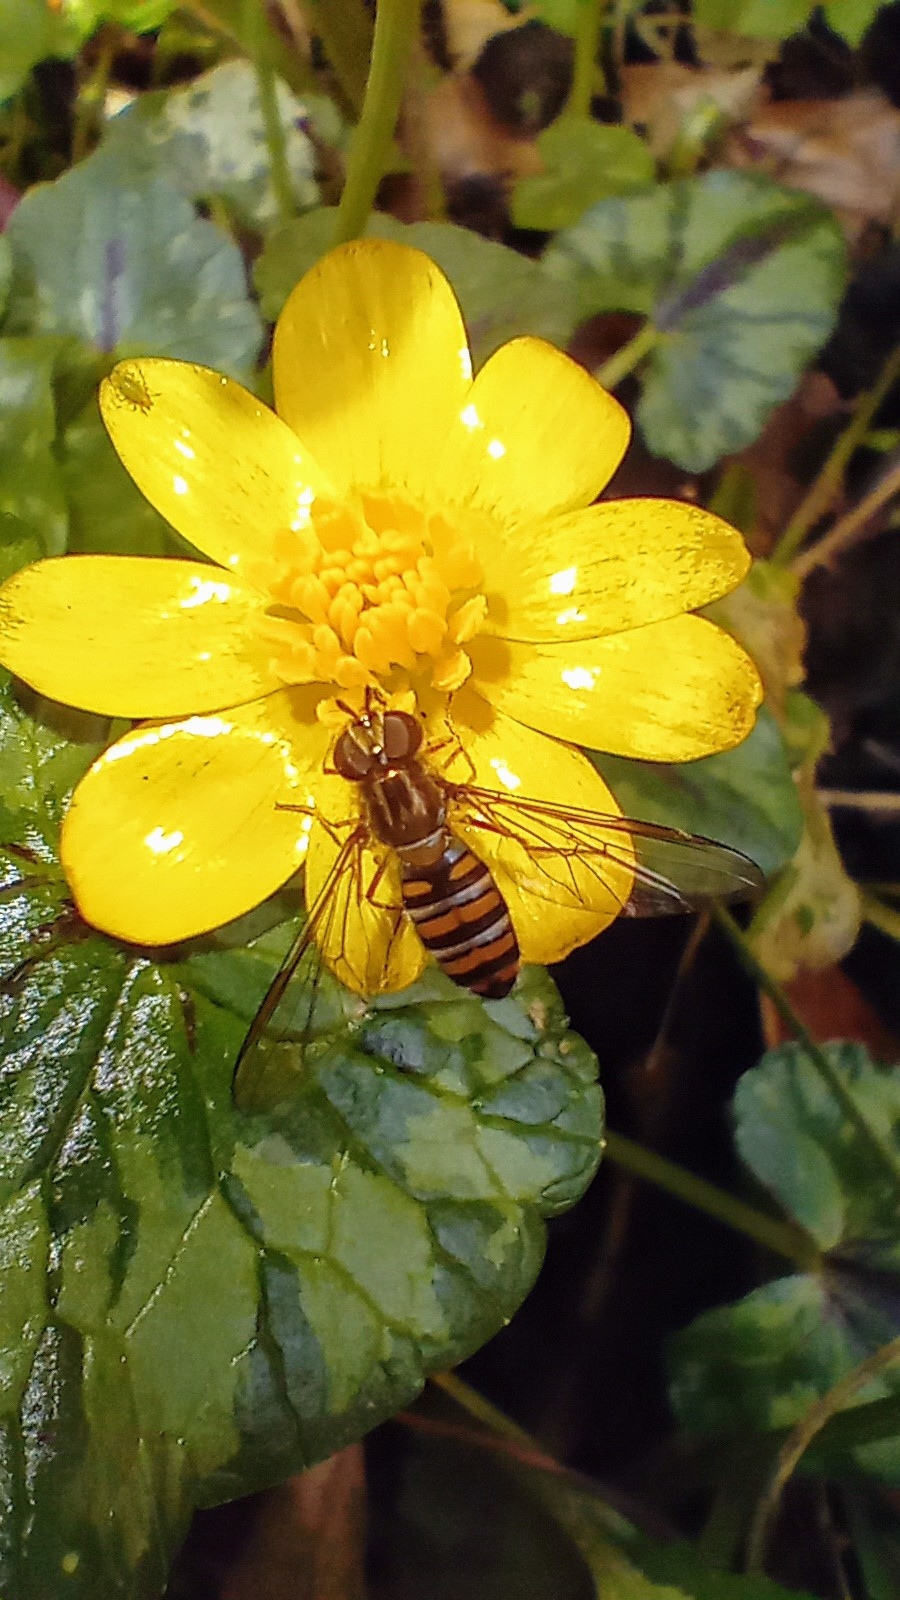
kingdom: Animalia
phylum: Arthropoda
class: Insecta
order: Diptera
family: Syrphidae
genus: Episyrphus
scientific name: Episyrphus balteatus
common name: Marmalade hoverfly
